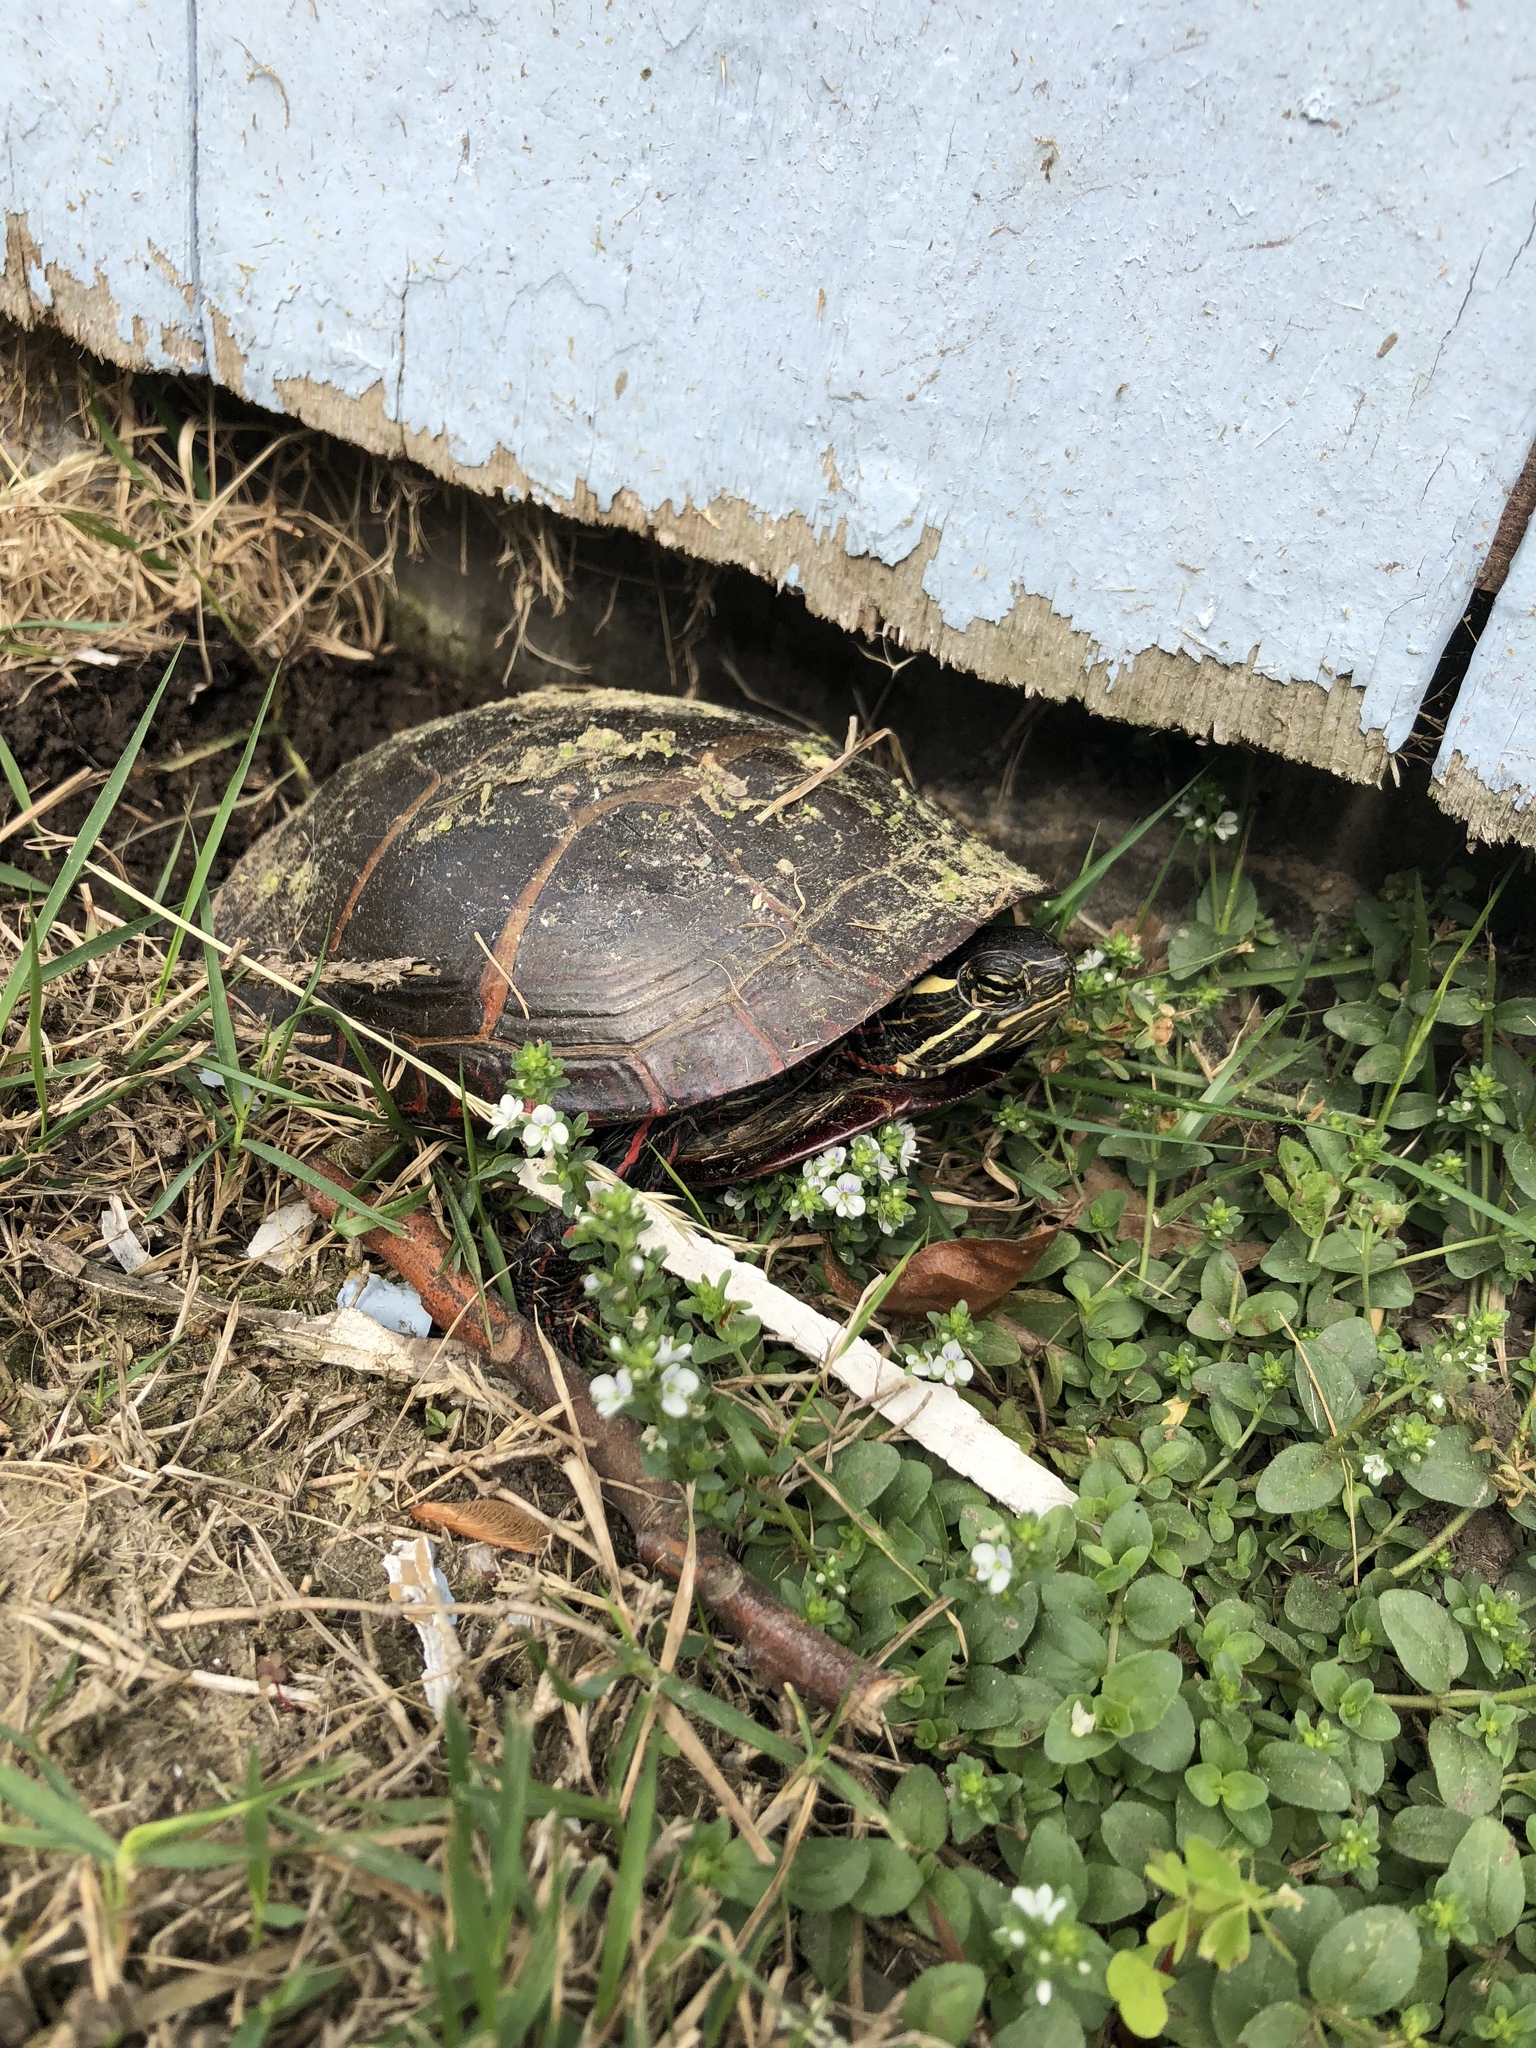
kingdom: Animalia
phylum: Chordata
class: Testudines
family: Emydidae
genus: Chrysemys
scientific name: Chrysemys picta
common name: Painted turtle
